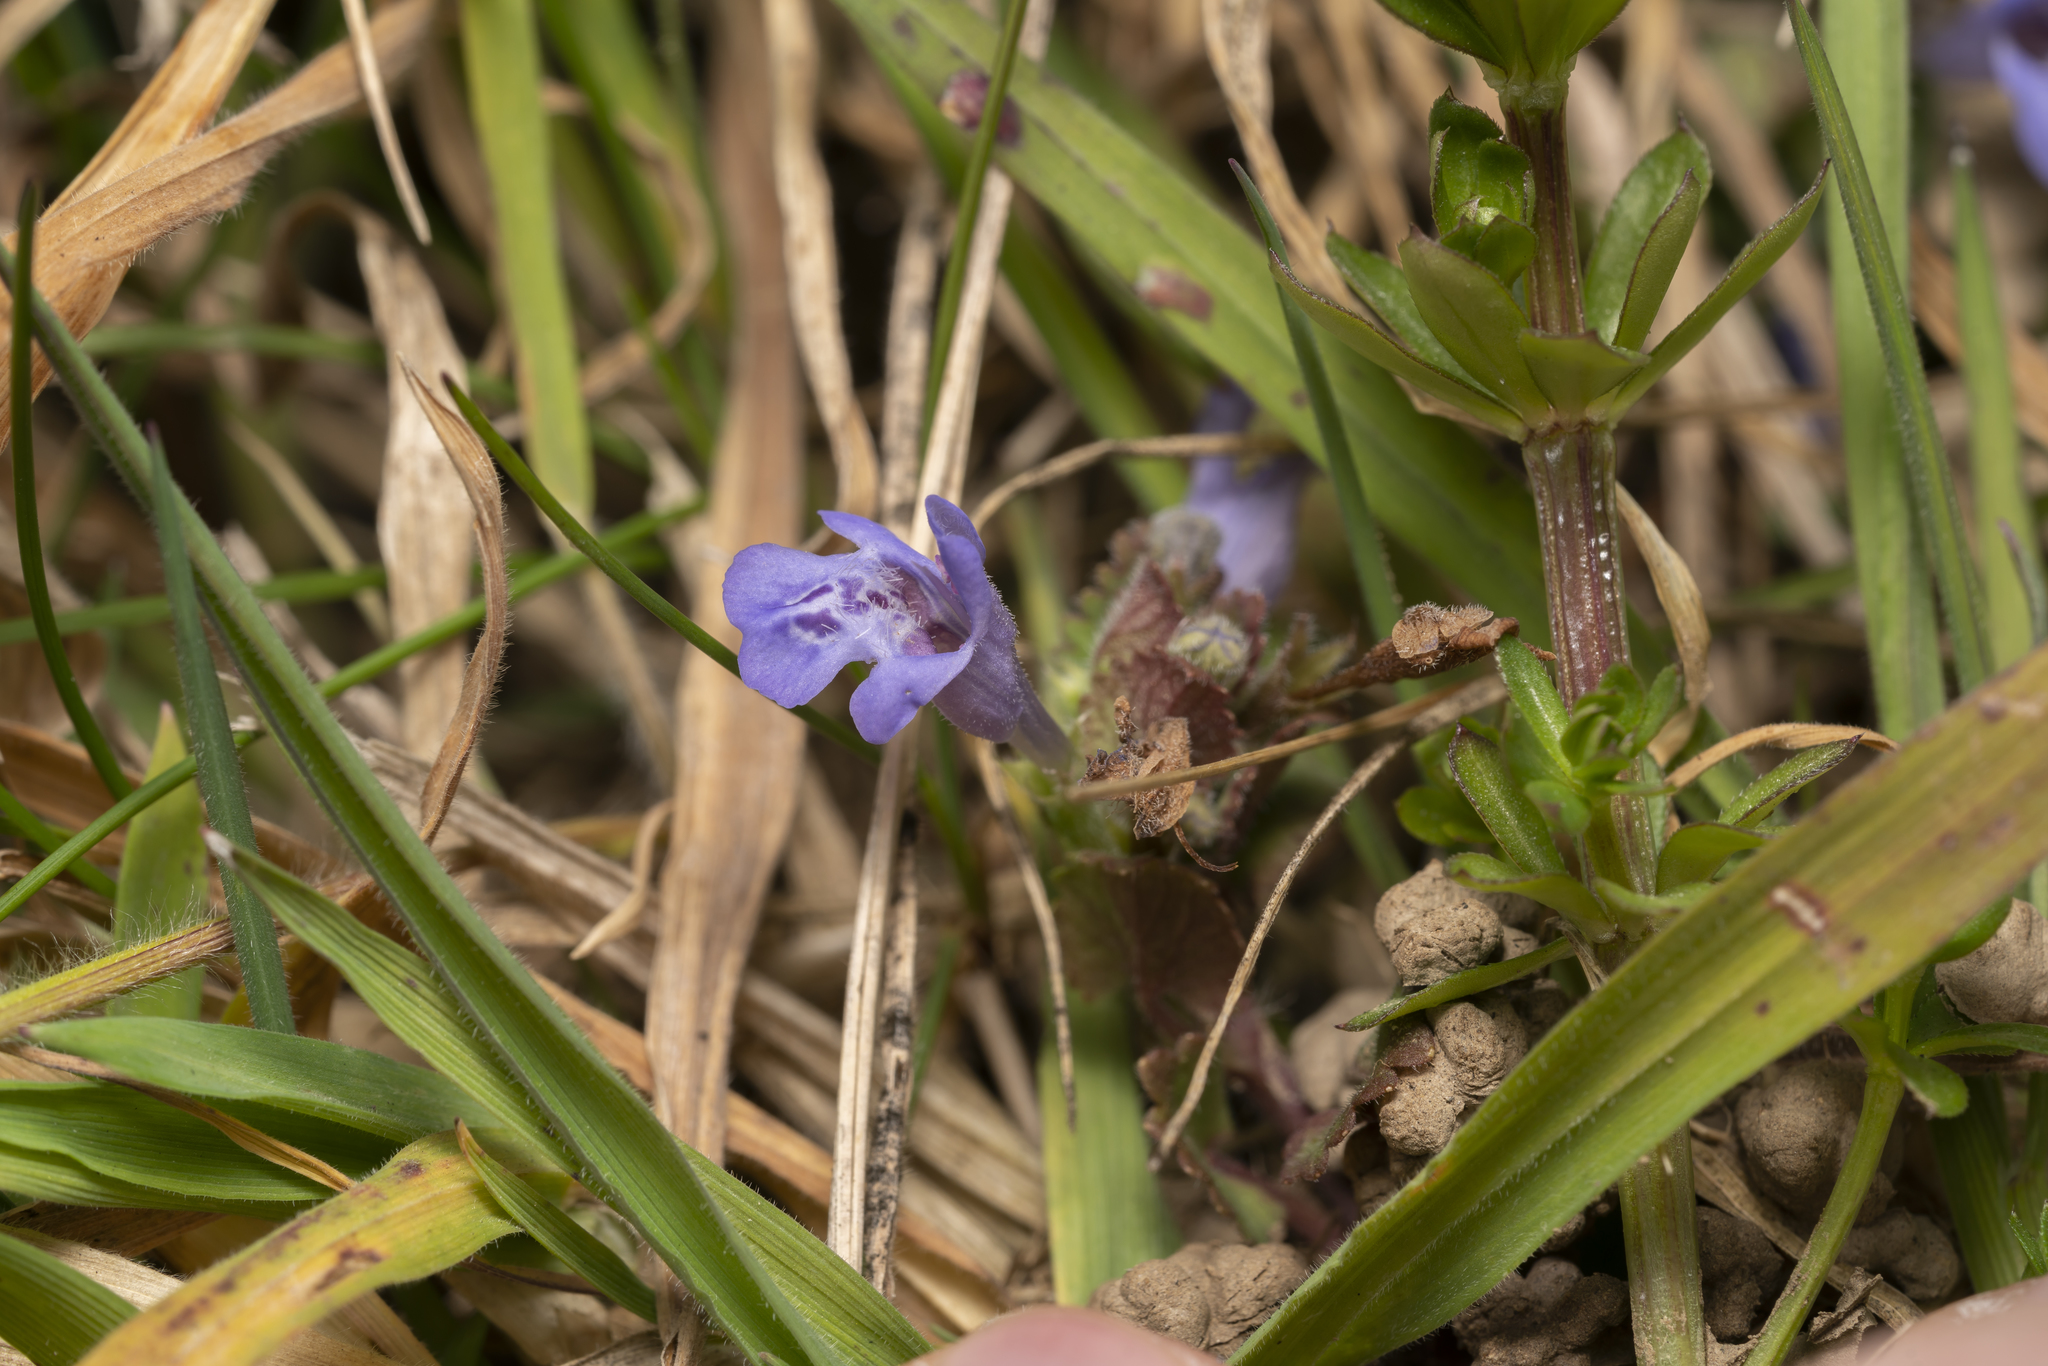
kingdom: Plantae
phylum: Tracheophyta
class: Magnoliopsida
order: Lamiales
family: Lamiaceae
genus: Glechoma
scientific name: Glechoma hederacea
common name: Ground ivy
